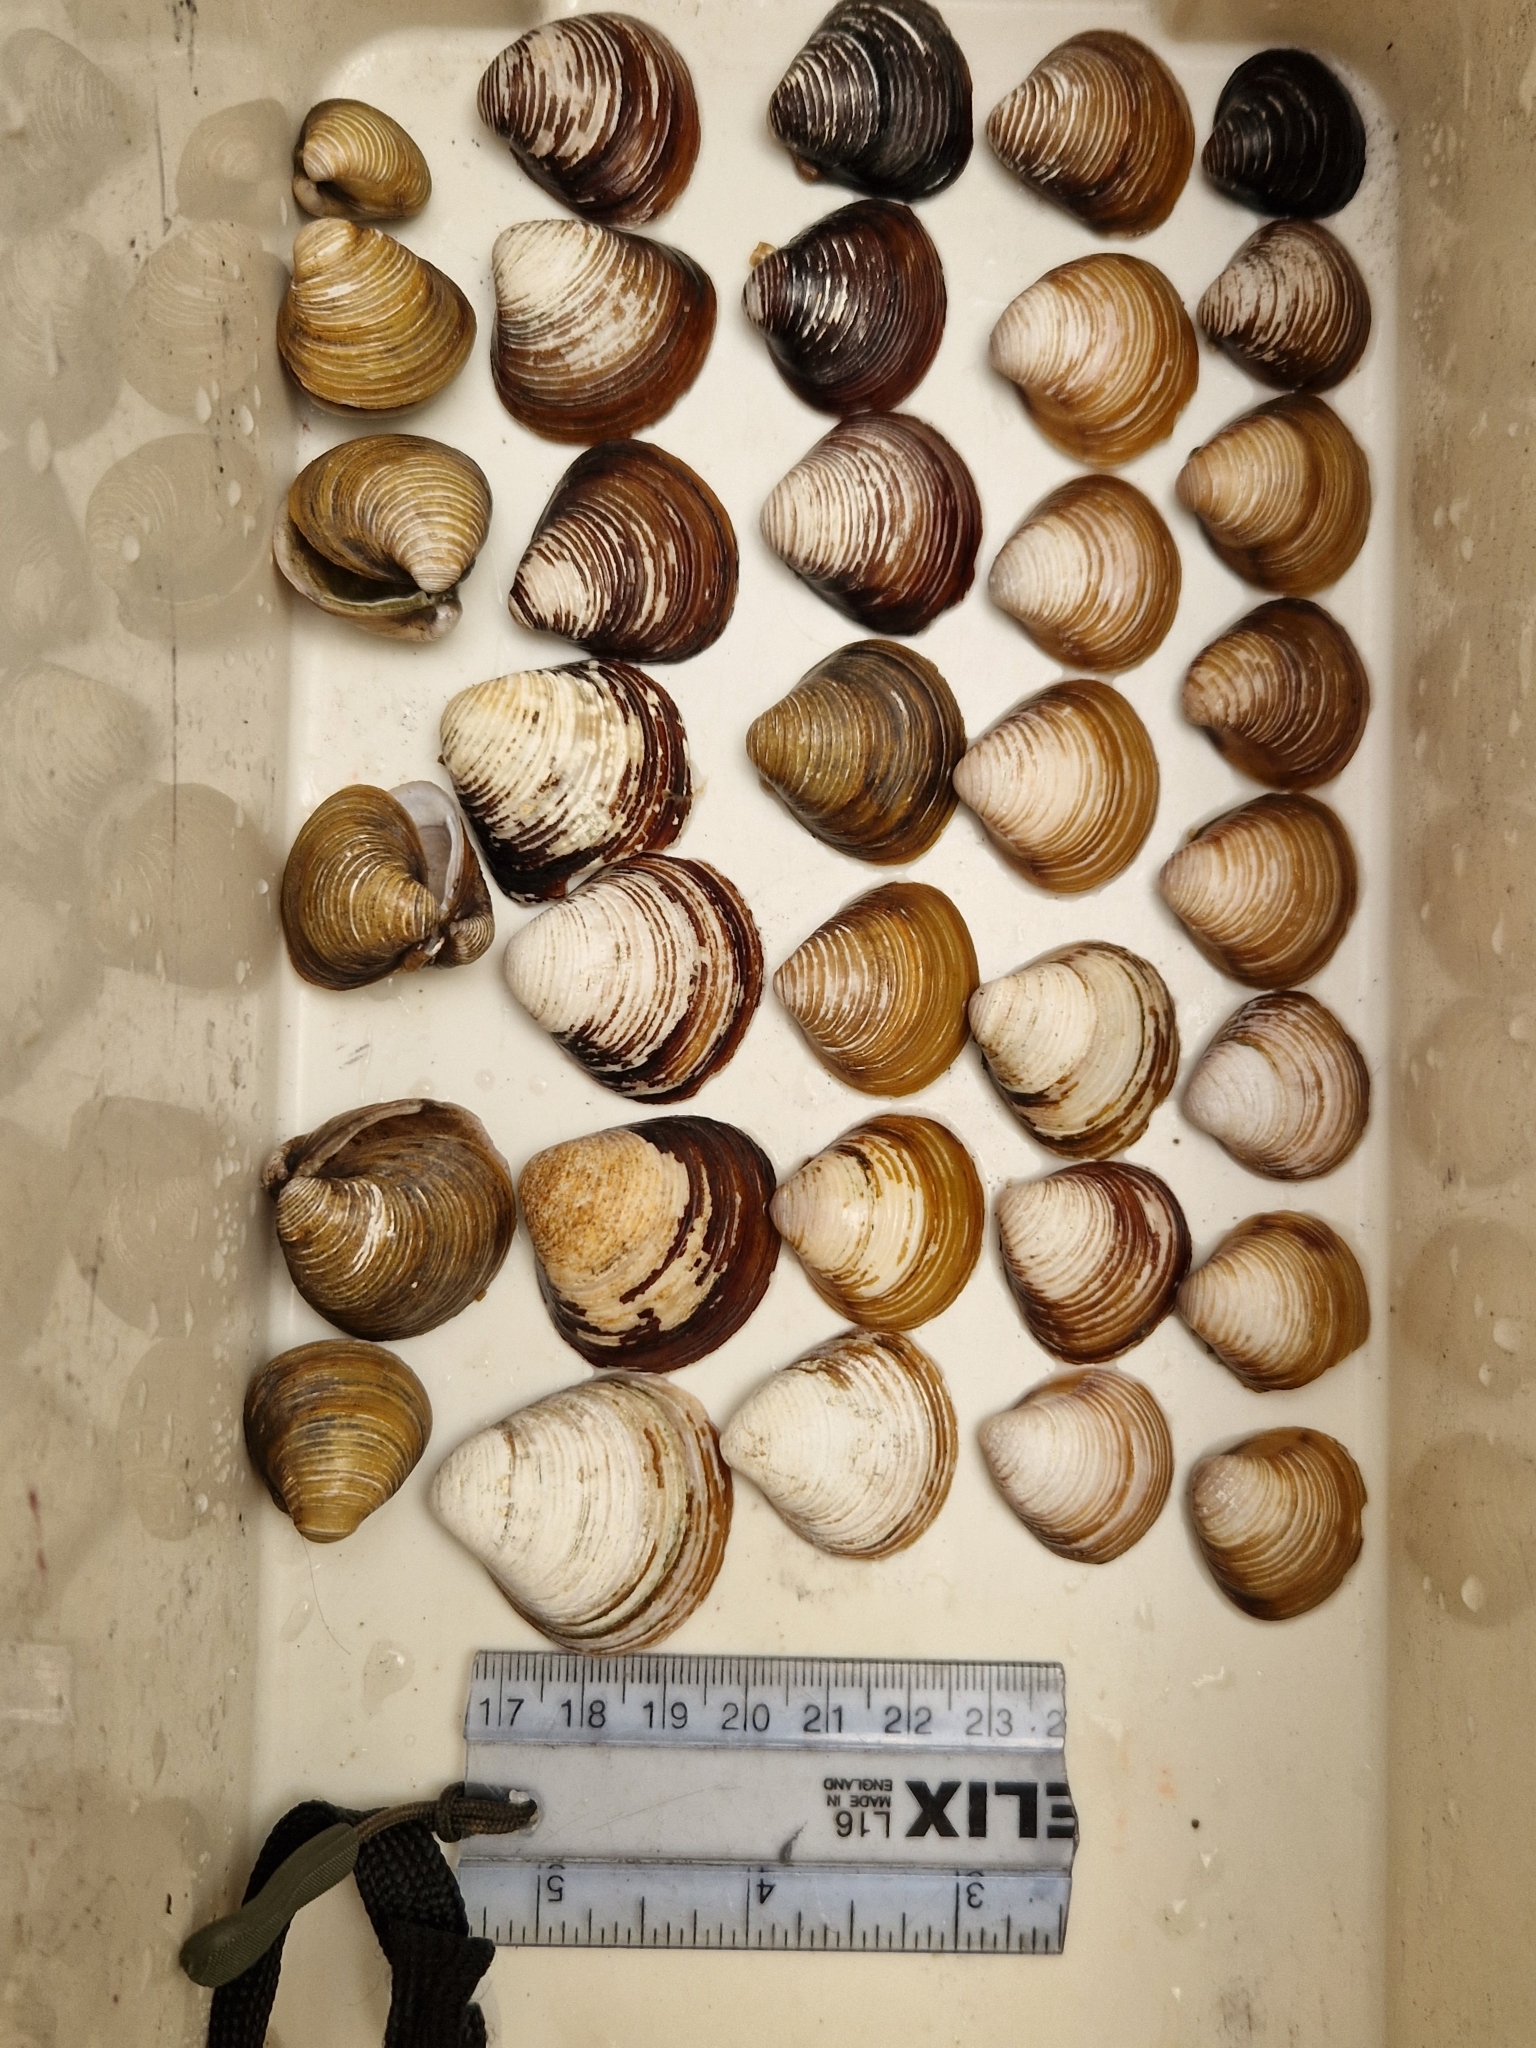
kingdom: Animalia
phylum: Mollusca
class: Bivalvia
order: Venerida
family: Cyrenidae
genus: Corbicula
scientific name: Corbicula fluminea
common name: Asian clam
